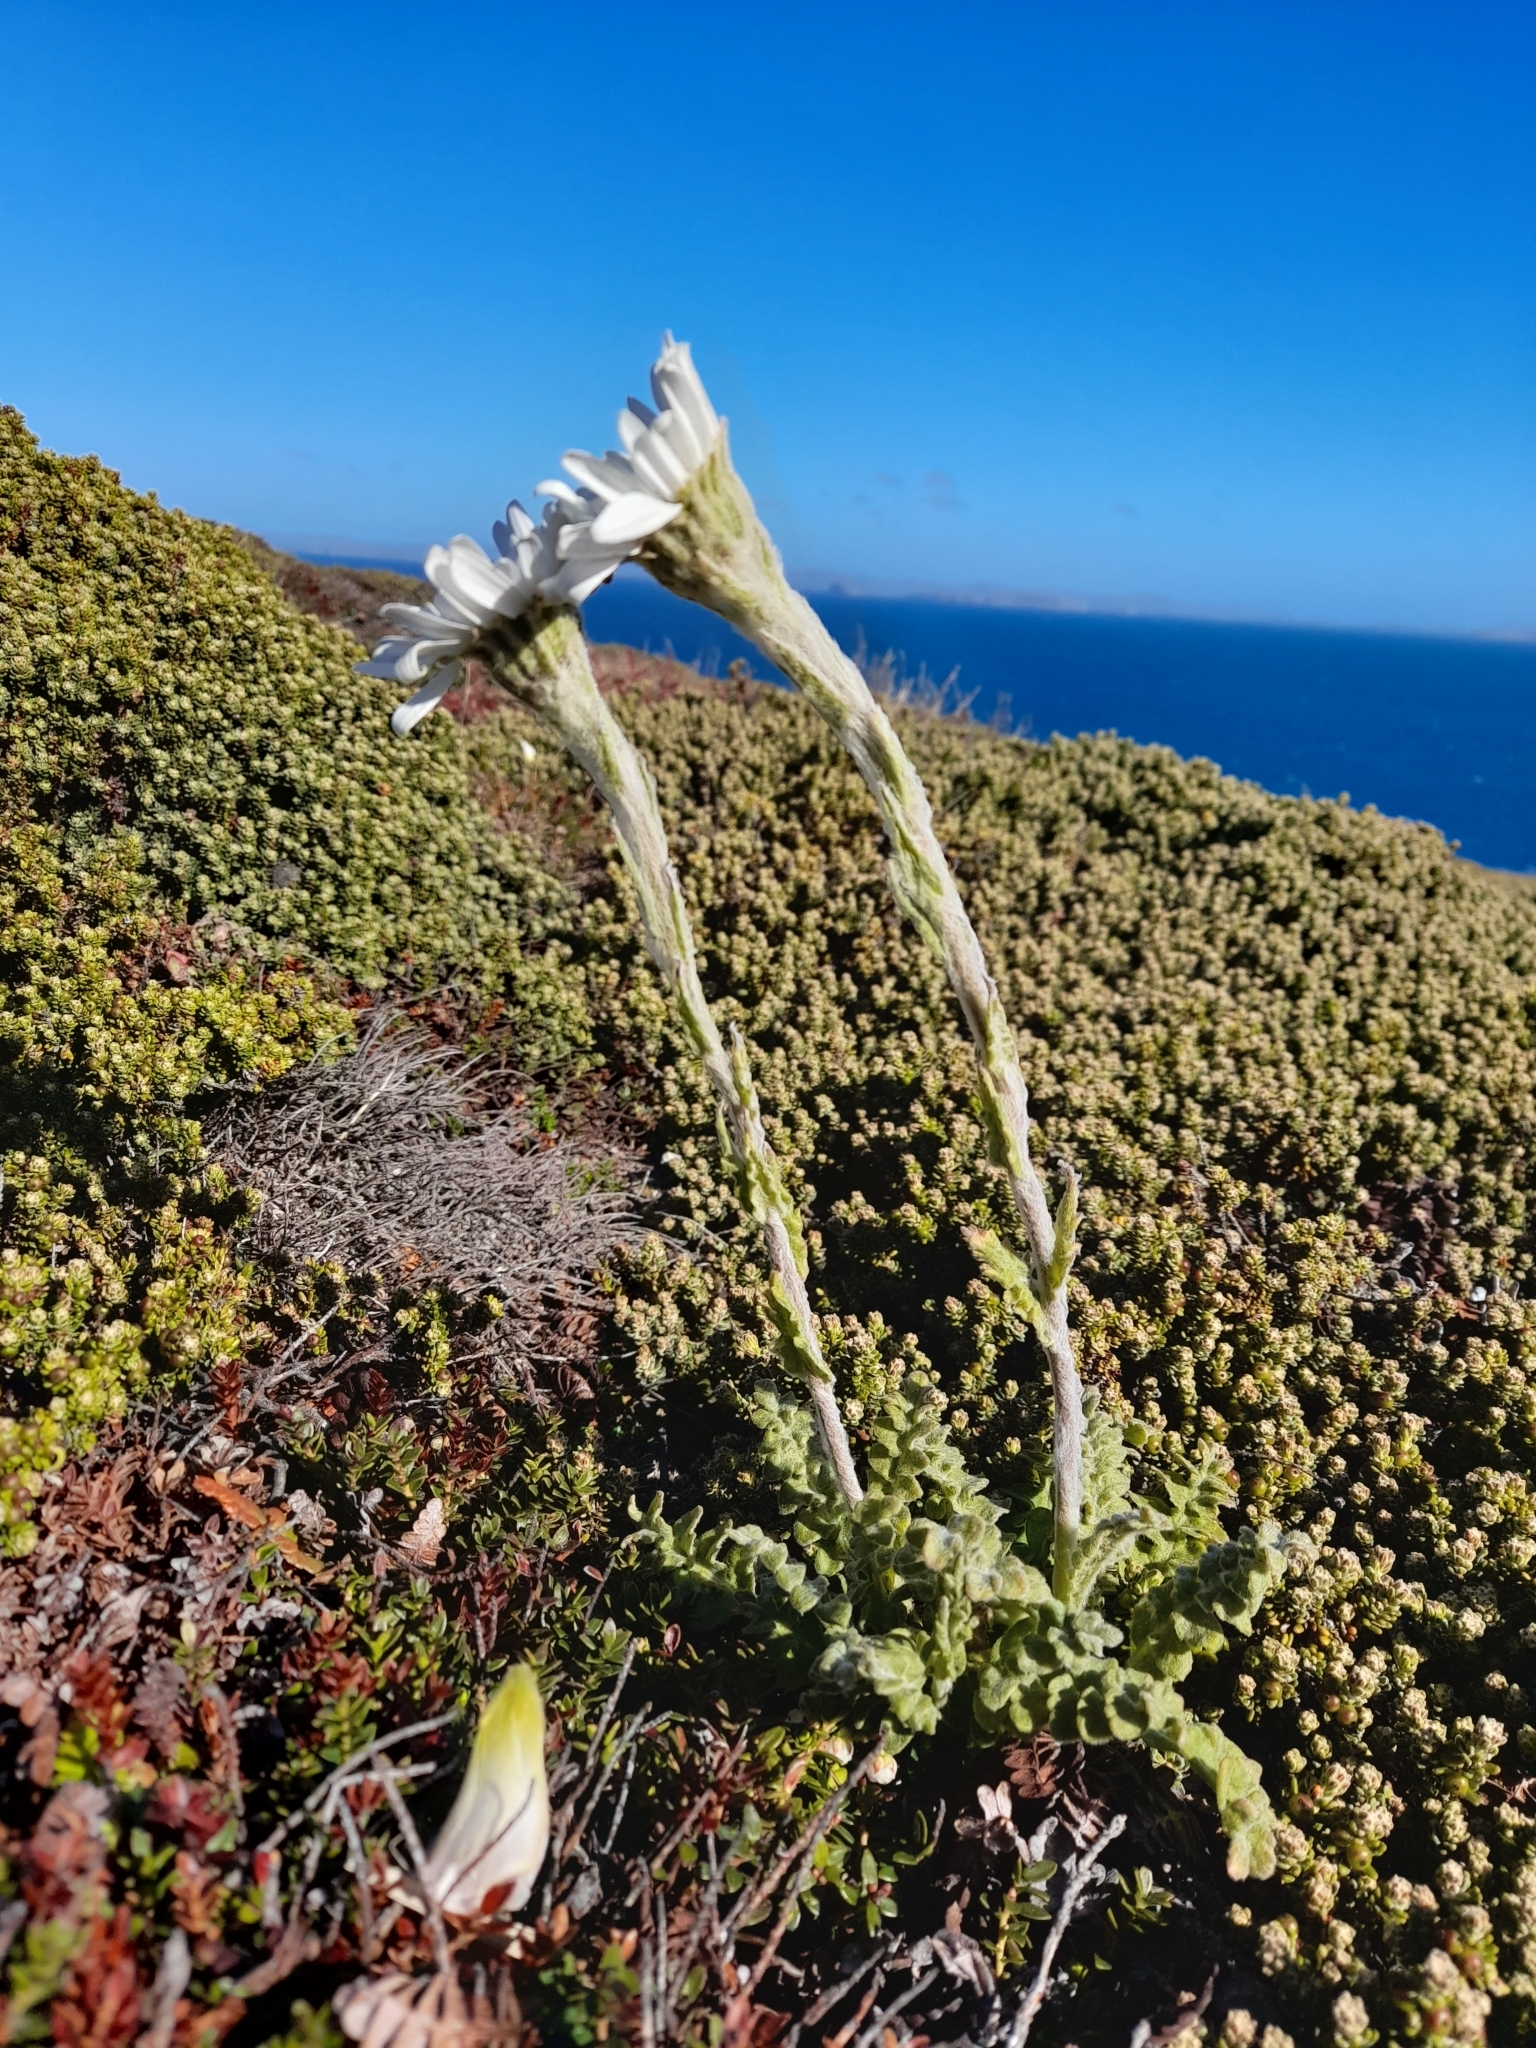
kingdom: Plantae
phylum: Tracheophyta
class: Magnoliopsida
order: Asterales
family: Asteraceae
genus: Leucheria
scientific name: Leucheria suaveolens
